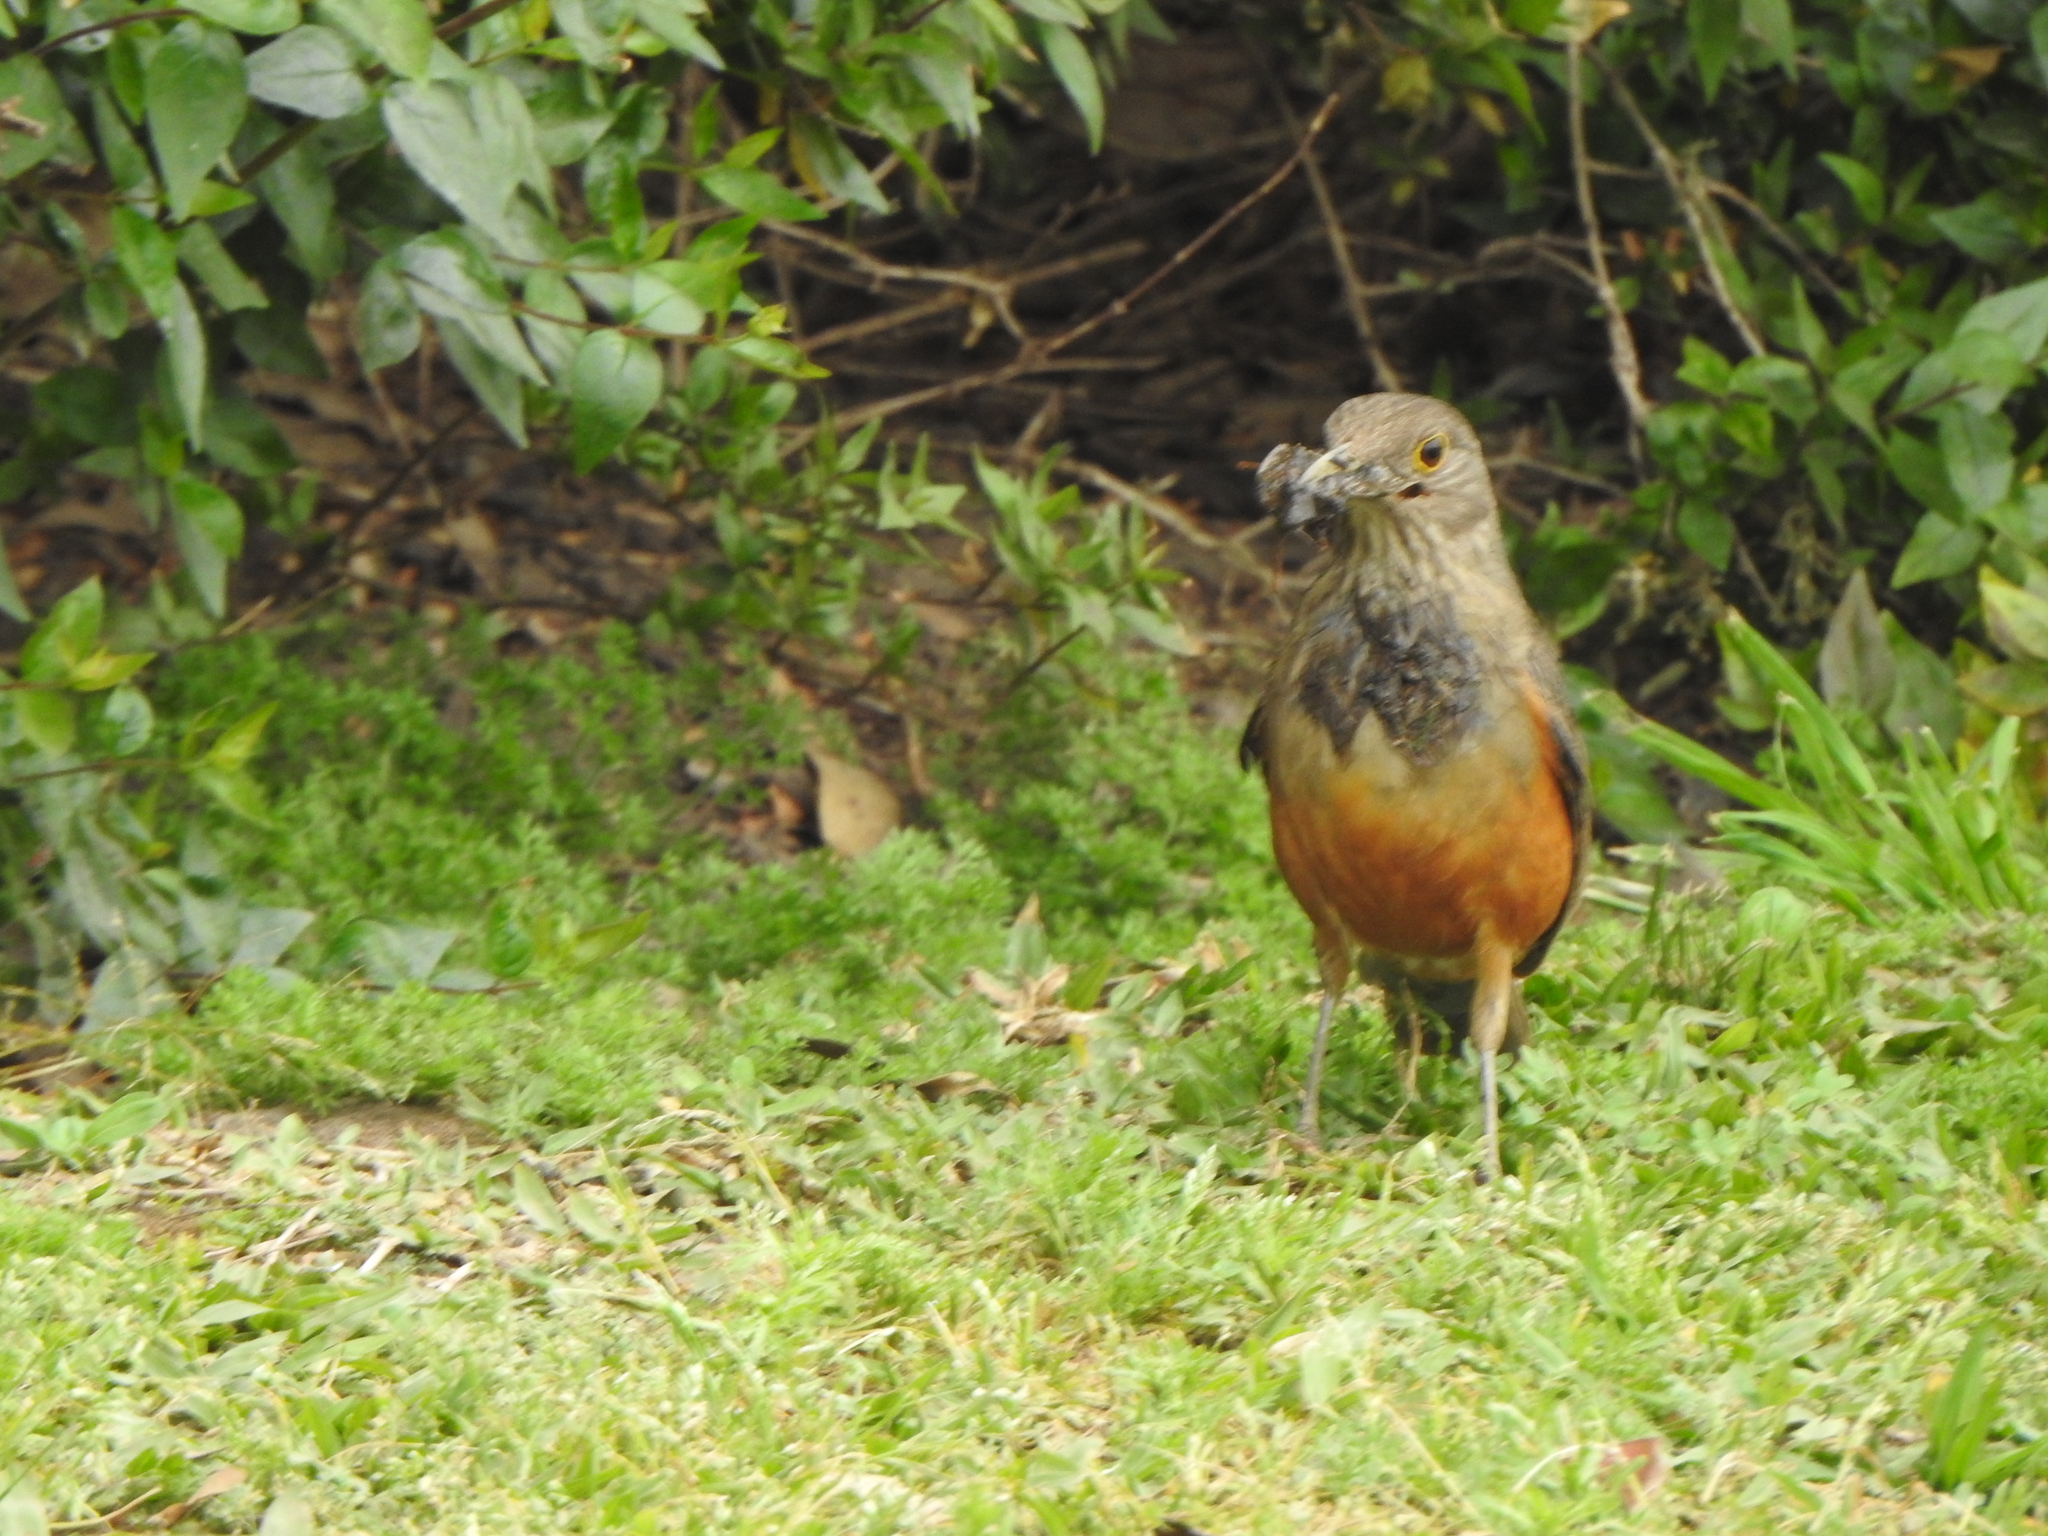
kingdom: Animalia
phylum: Chordata
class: Aves
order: Passeriformes
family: Turdidae
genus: Turdus
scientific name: Turdus rufiventris
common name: Rufous-bellied thrush
